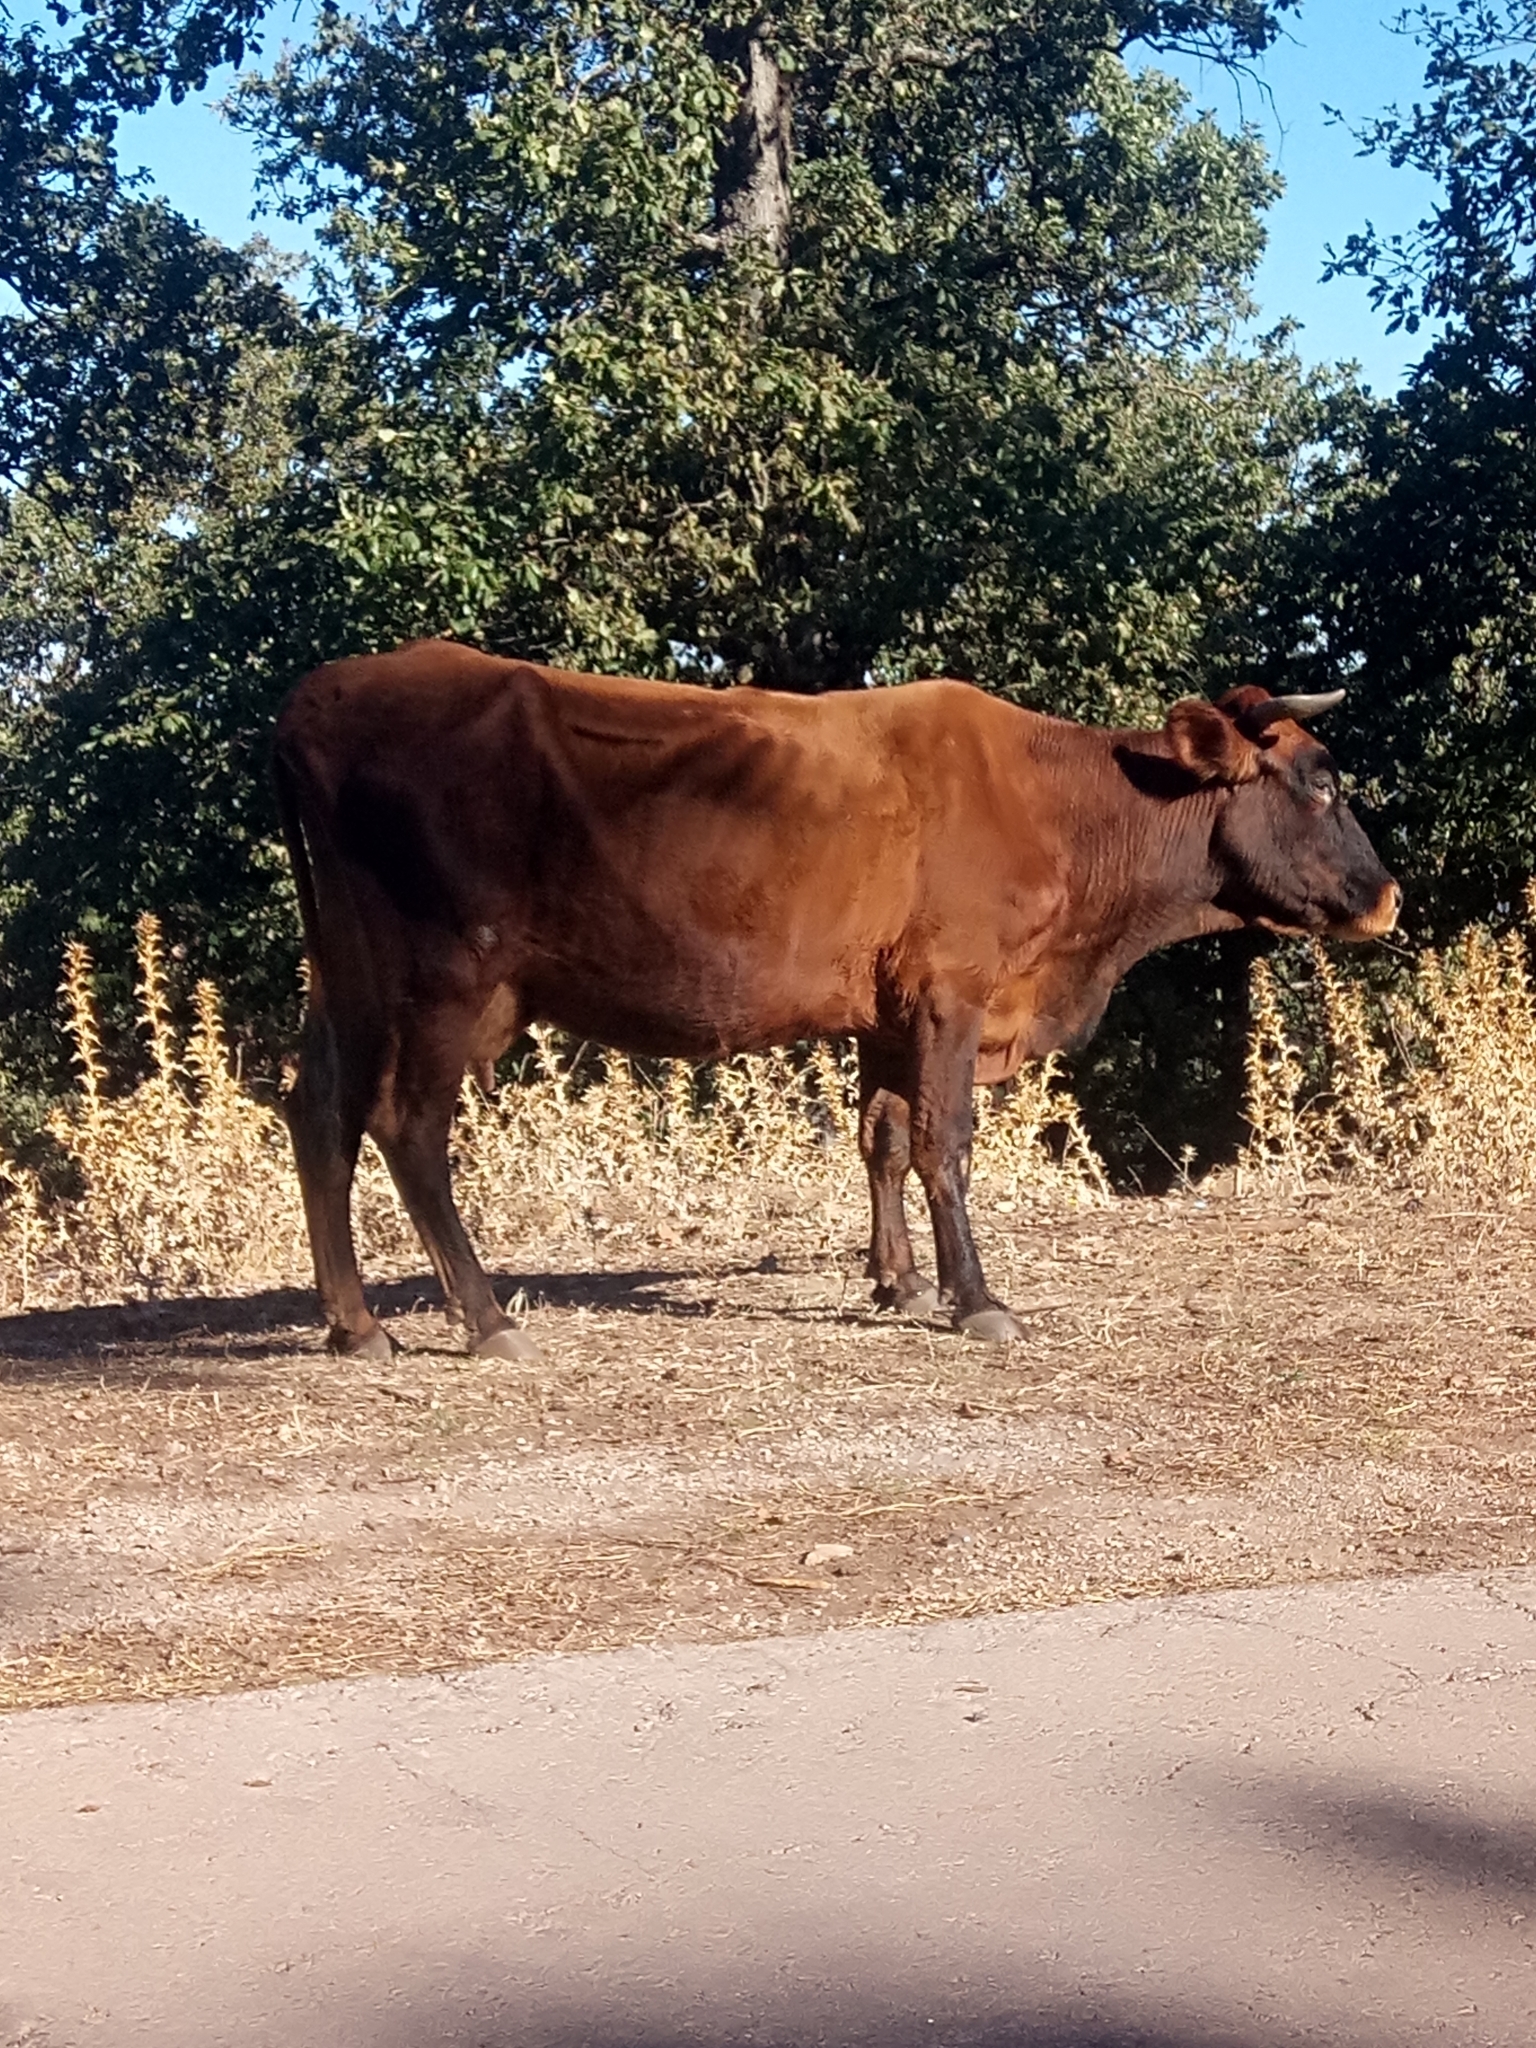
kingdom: Animalia
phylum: Chordata
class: Mammalia
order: Artiodactyla
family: Bovidae
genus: Bos
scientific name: Bos taurus
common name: Domesticated cattle
